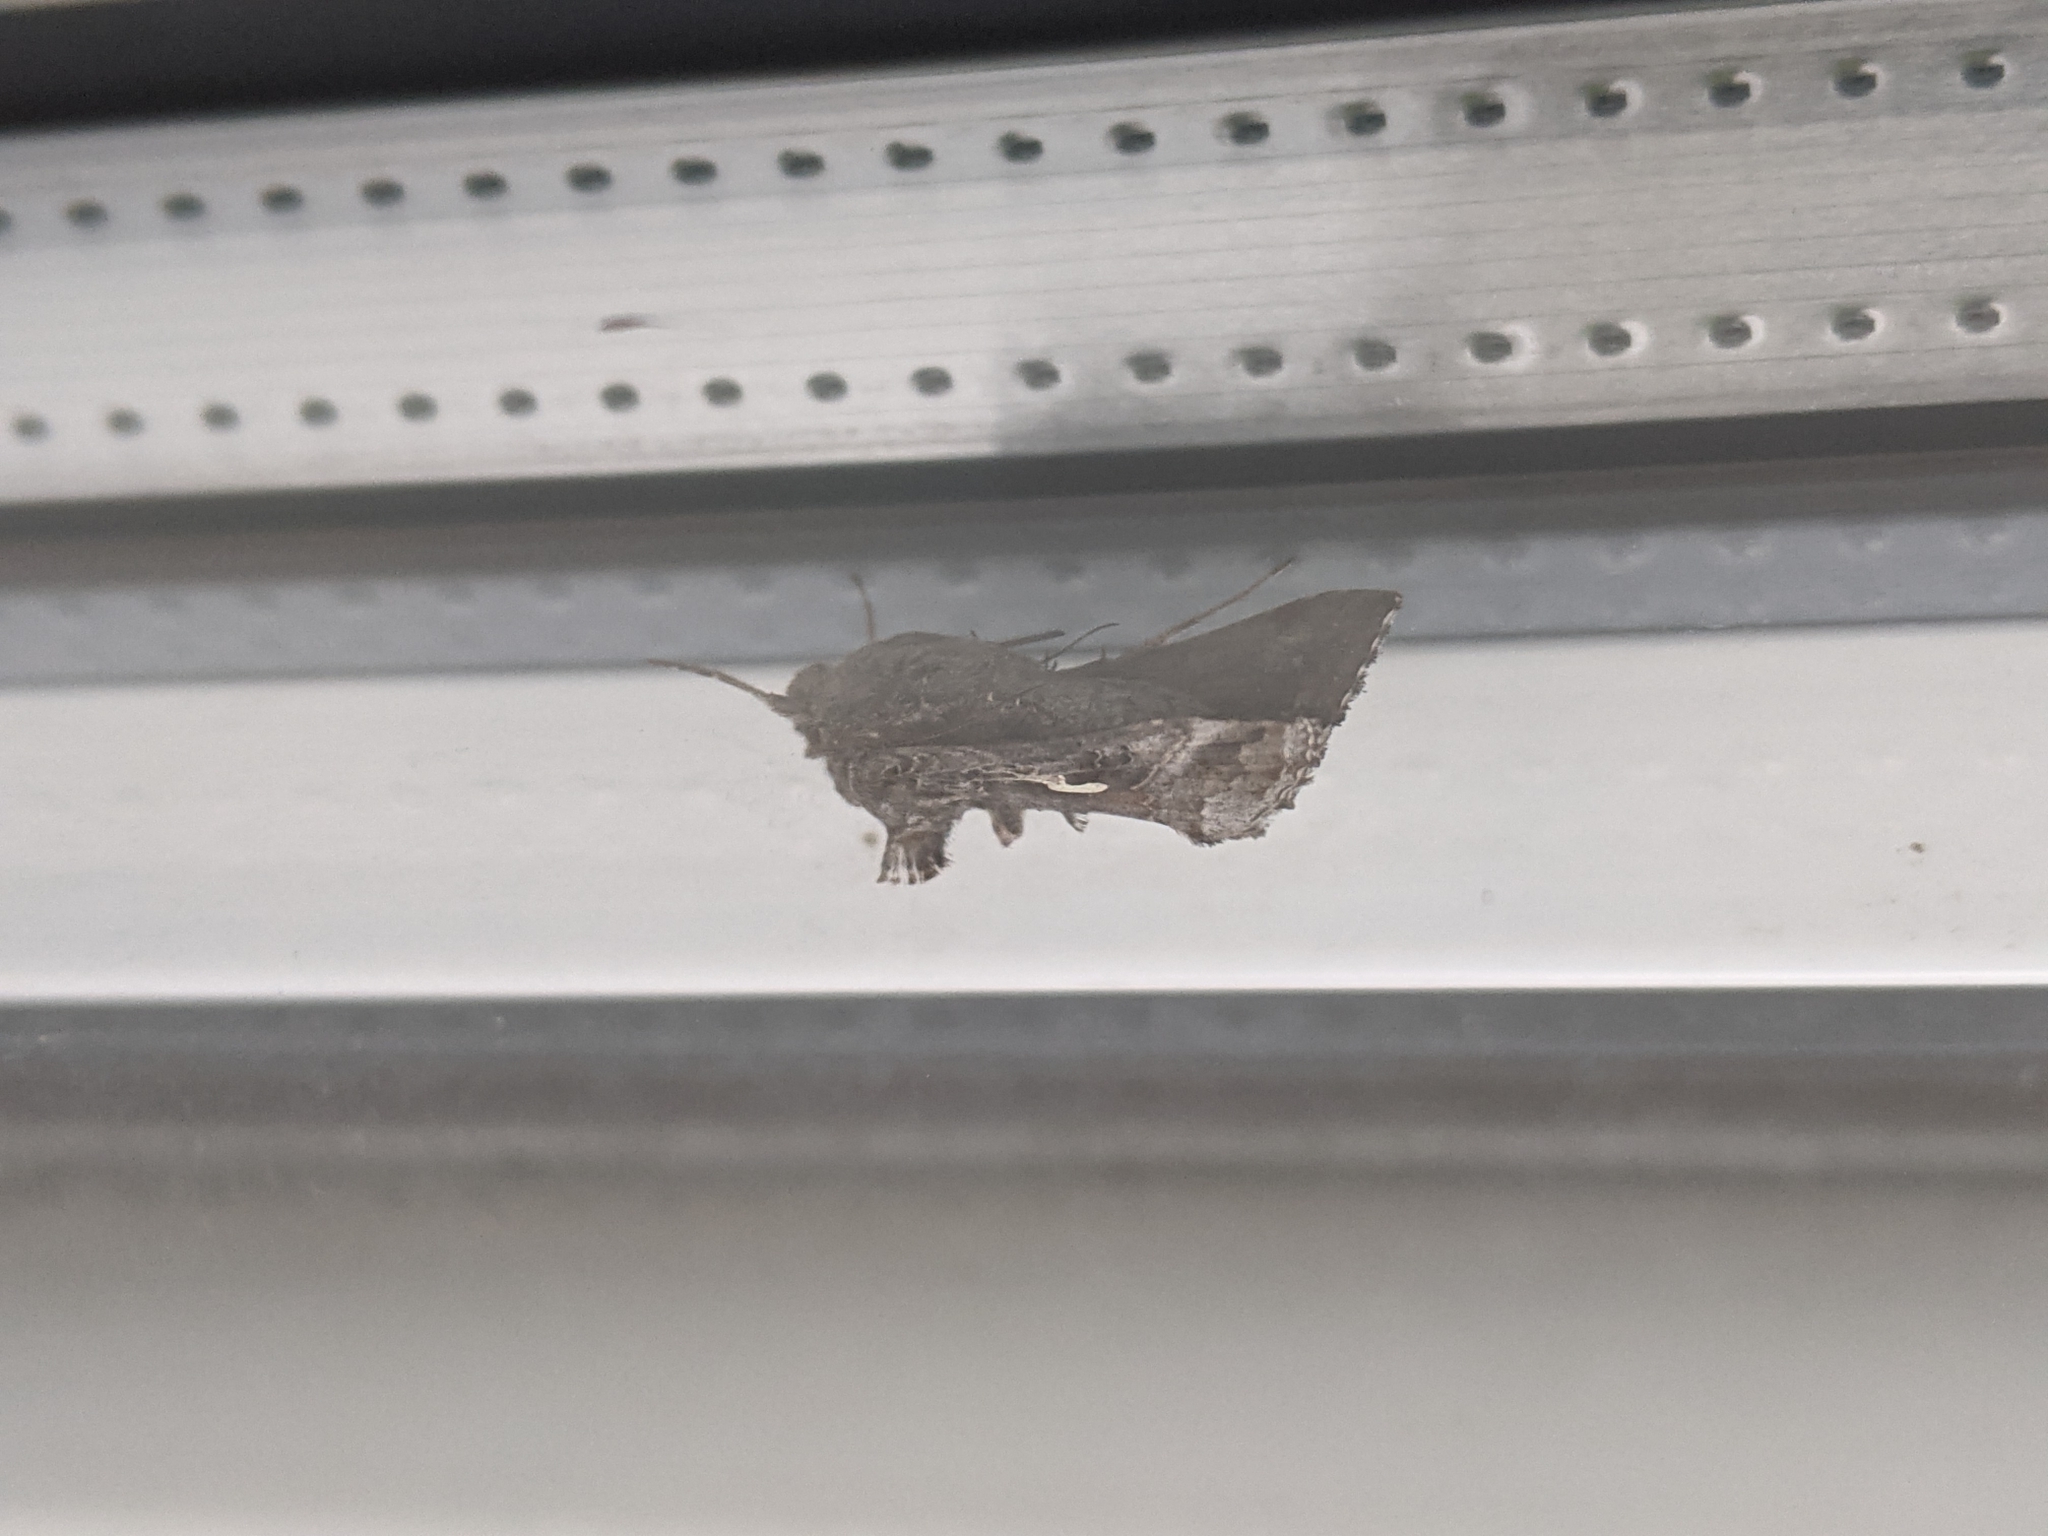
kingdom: Animalia
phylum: Arthropoda
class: Insecta
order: Lepidoptera
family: Noctuidae
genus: Autographa
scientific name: Autographa gamma
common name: Silver y
